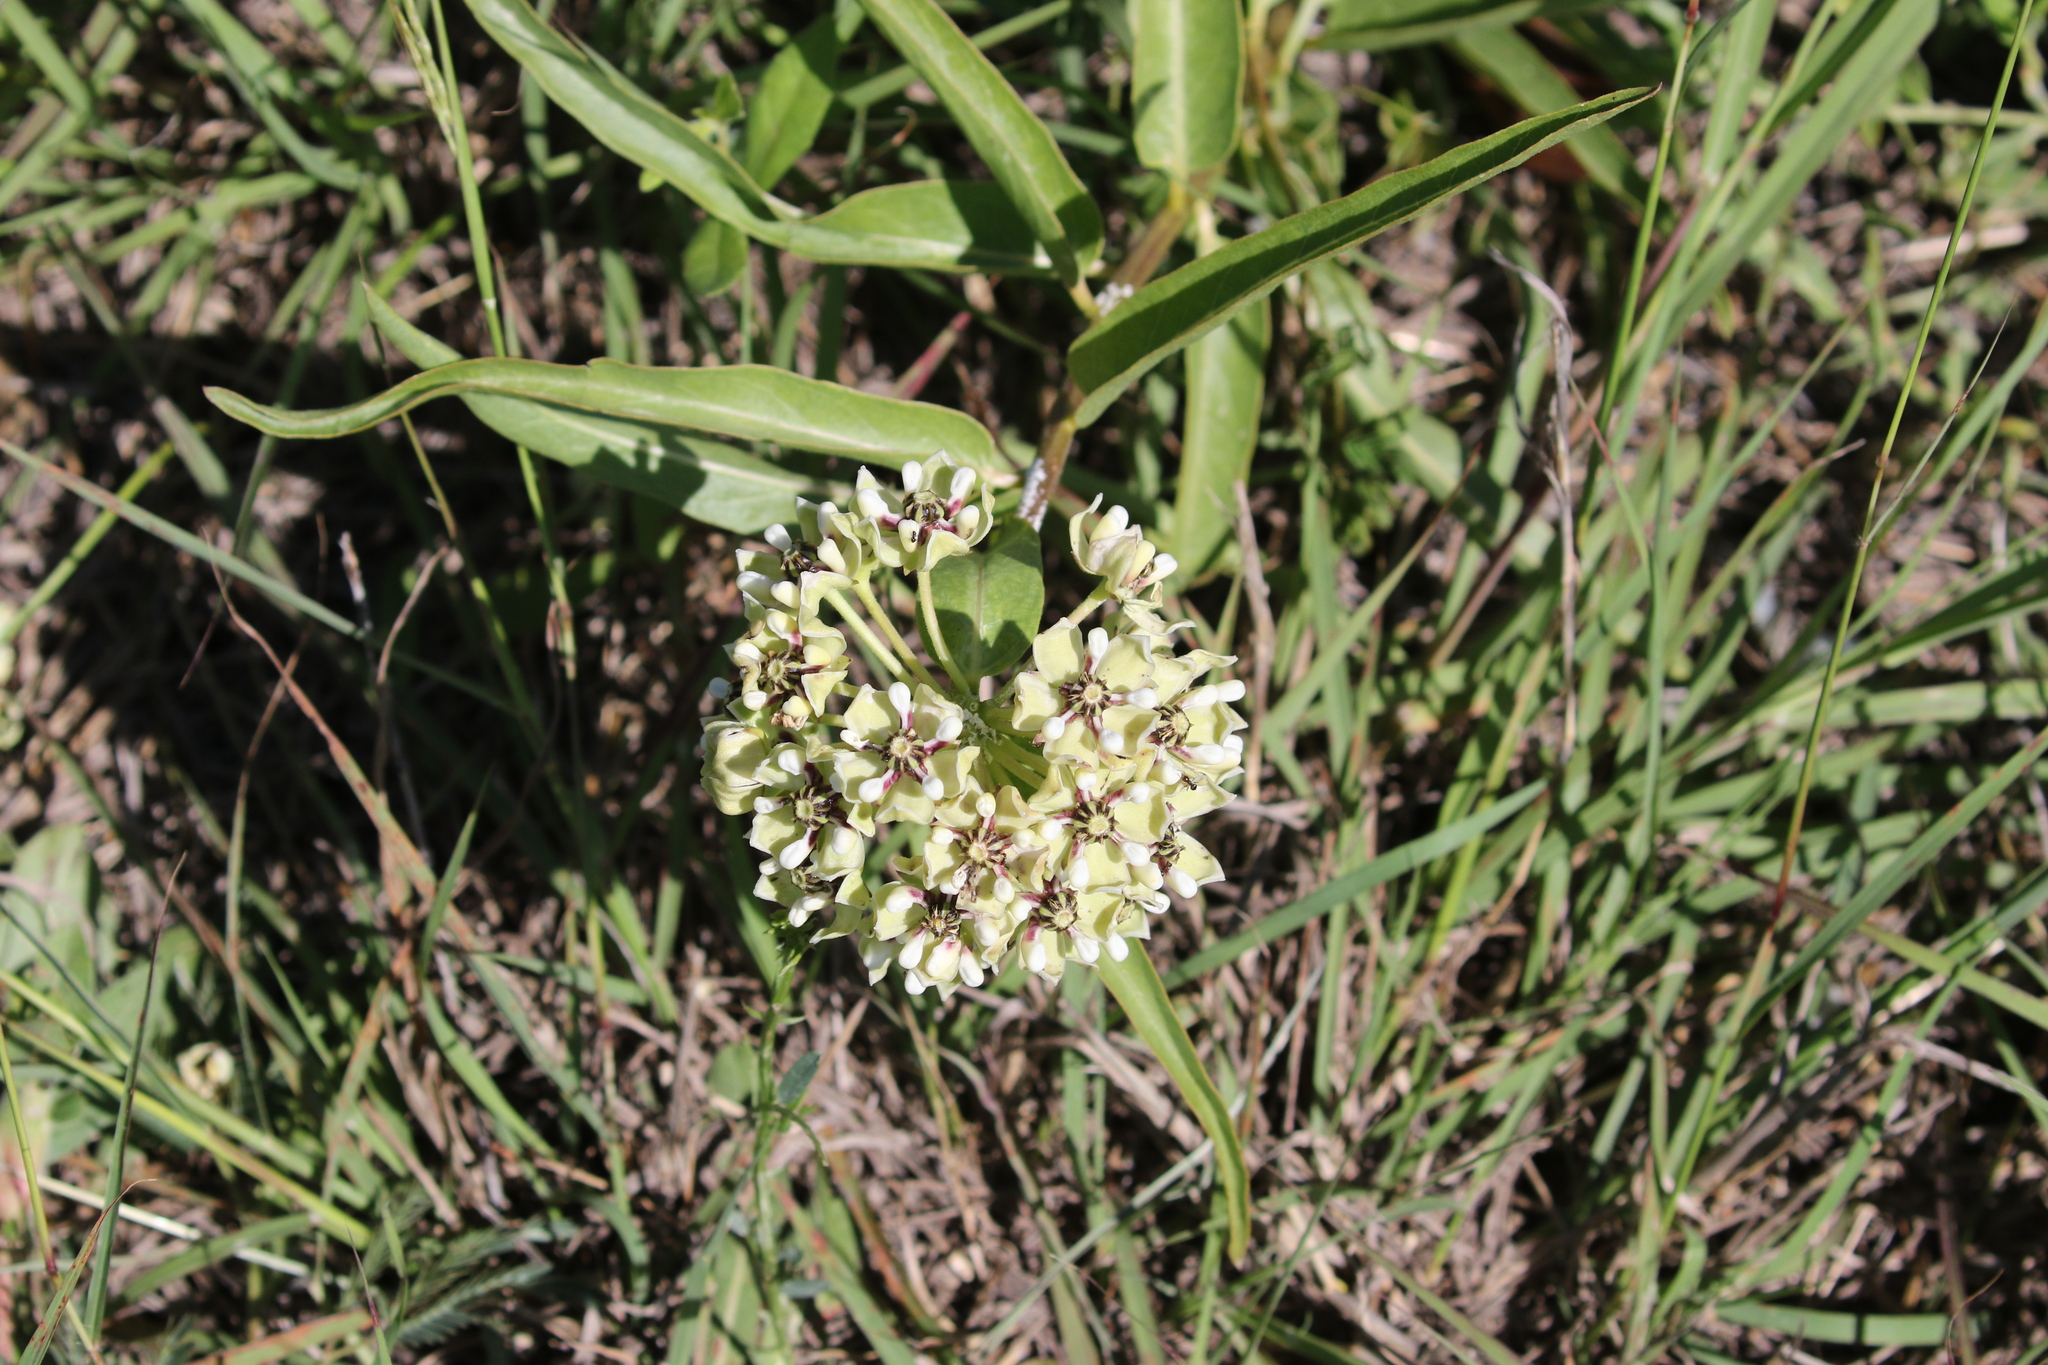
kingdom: Plantae
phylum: Tracheophyta
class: Magnoliopsida
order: Gentianales
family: Apocynaceae
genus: Asclepias
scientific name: Asclepias asperula
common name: Antelope horns
